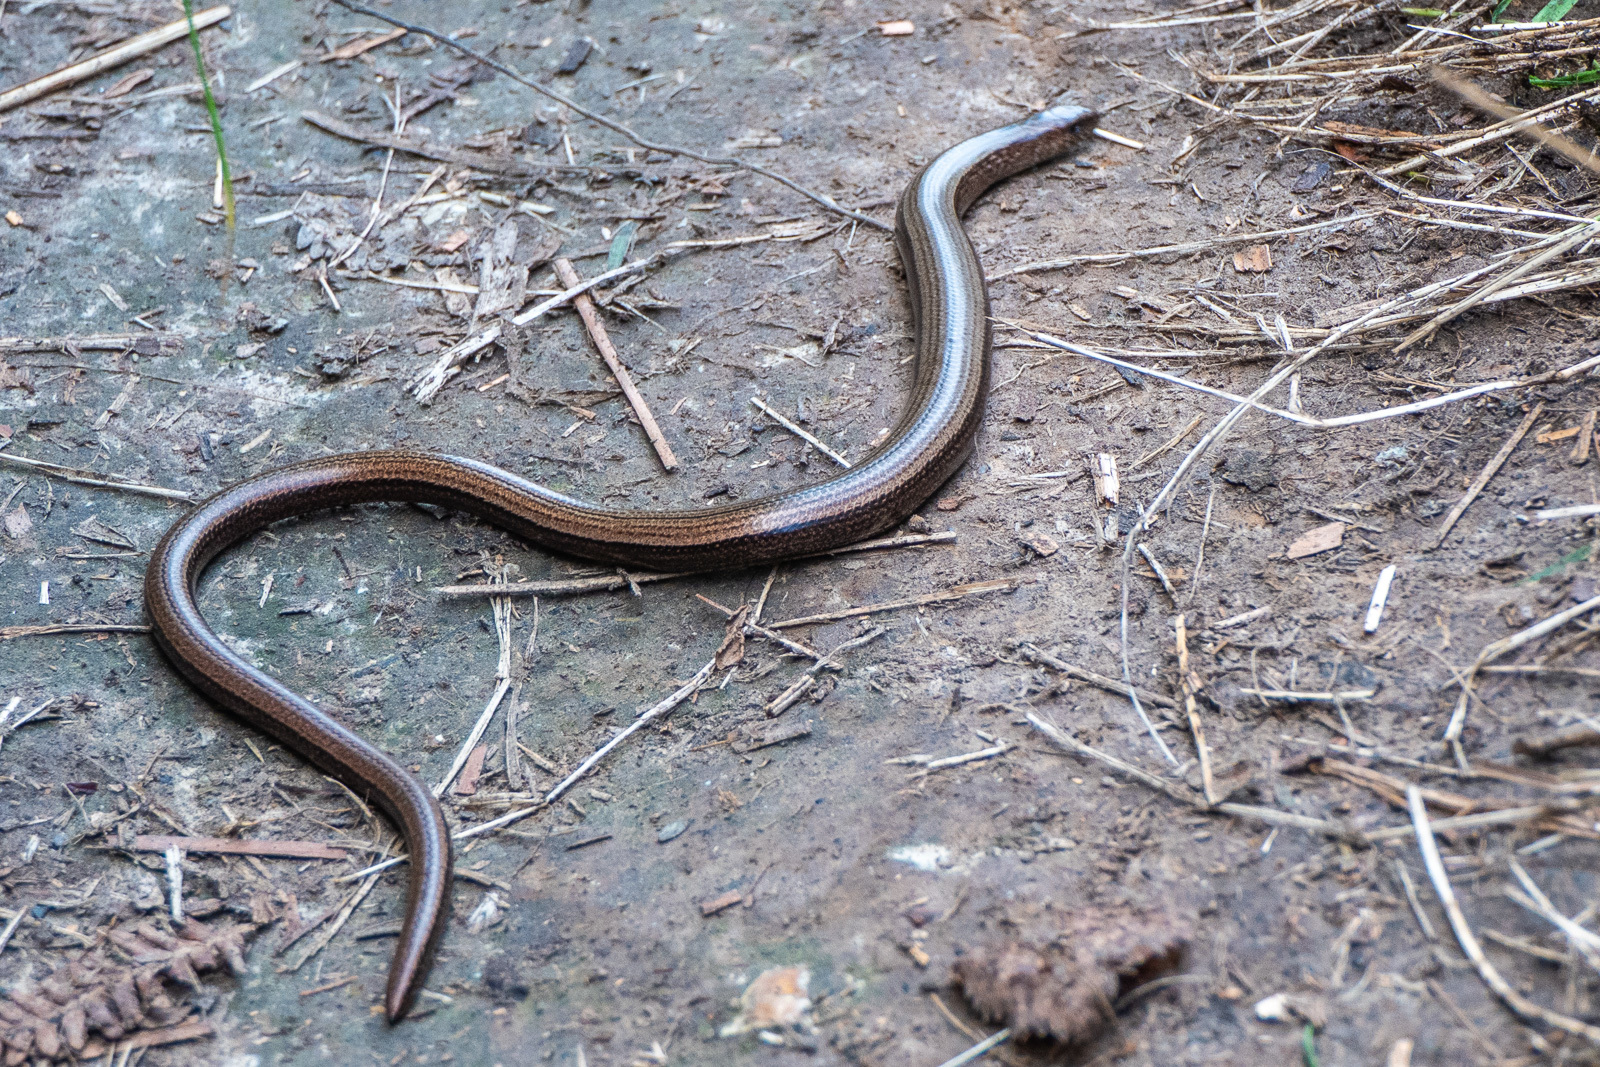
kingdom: Animalia
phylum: Chordata
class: Squamata
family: Anguidae
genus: Anguis
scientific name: Anguis fragilis
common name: Slow worm
